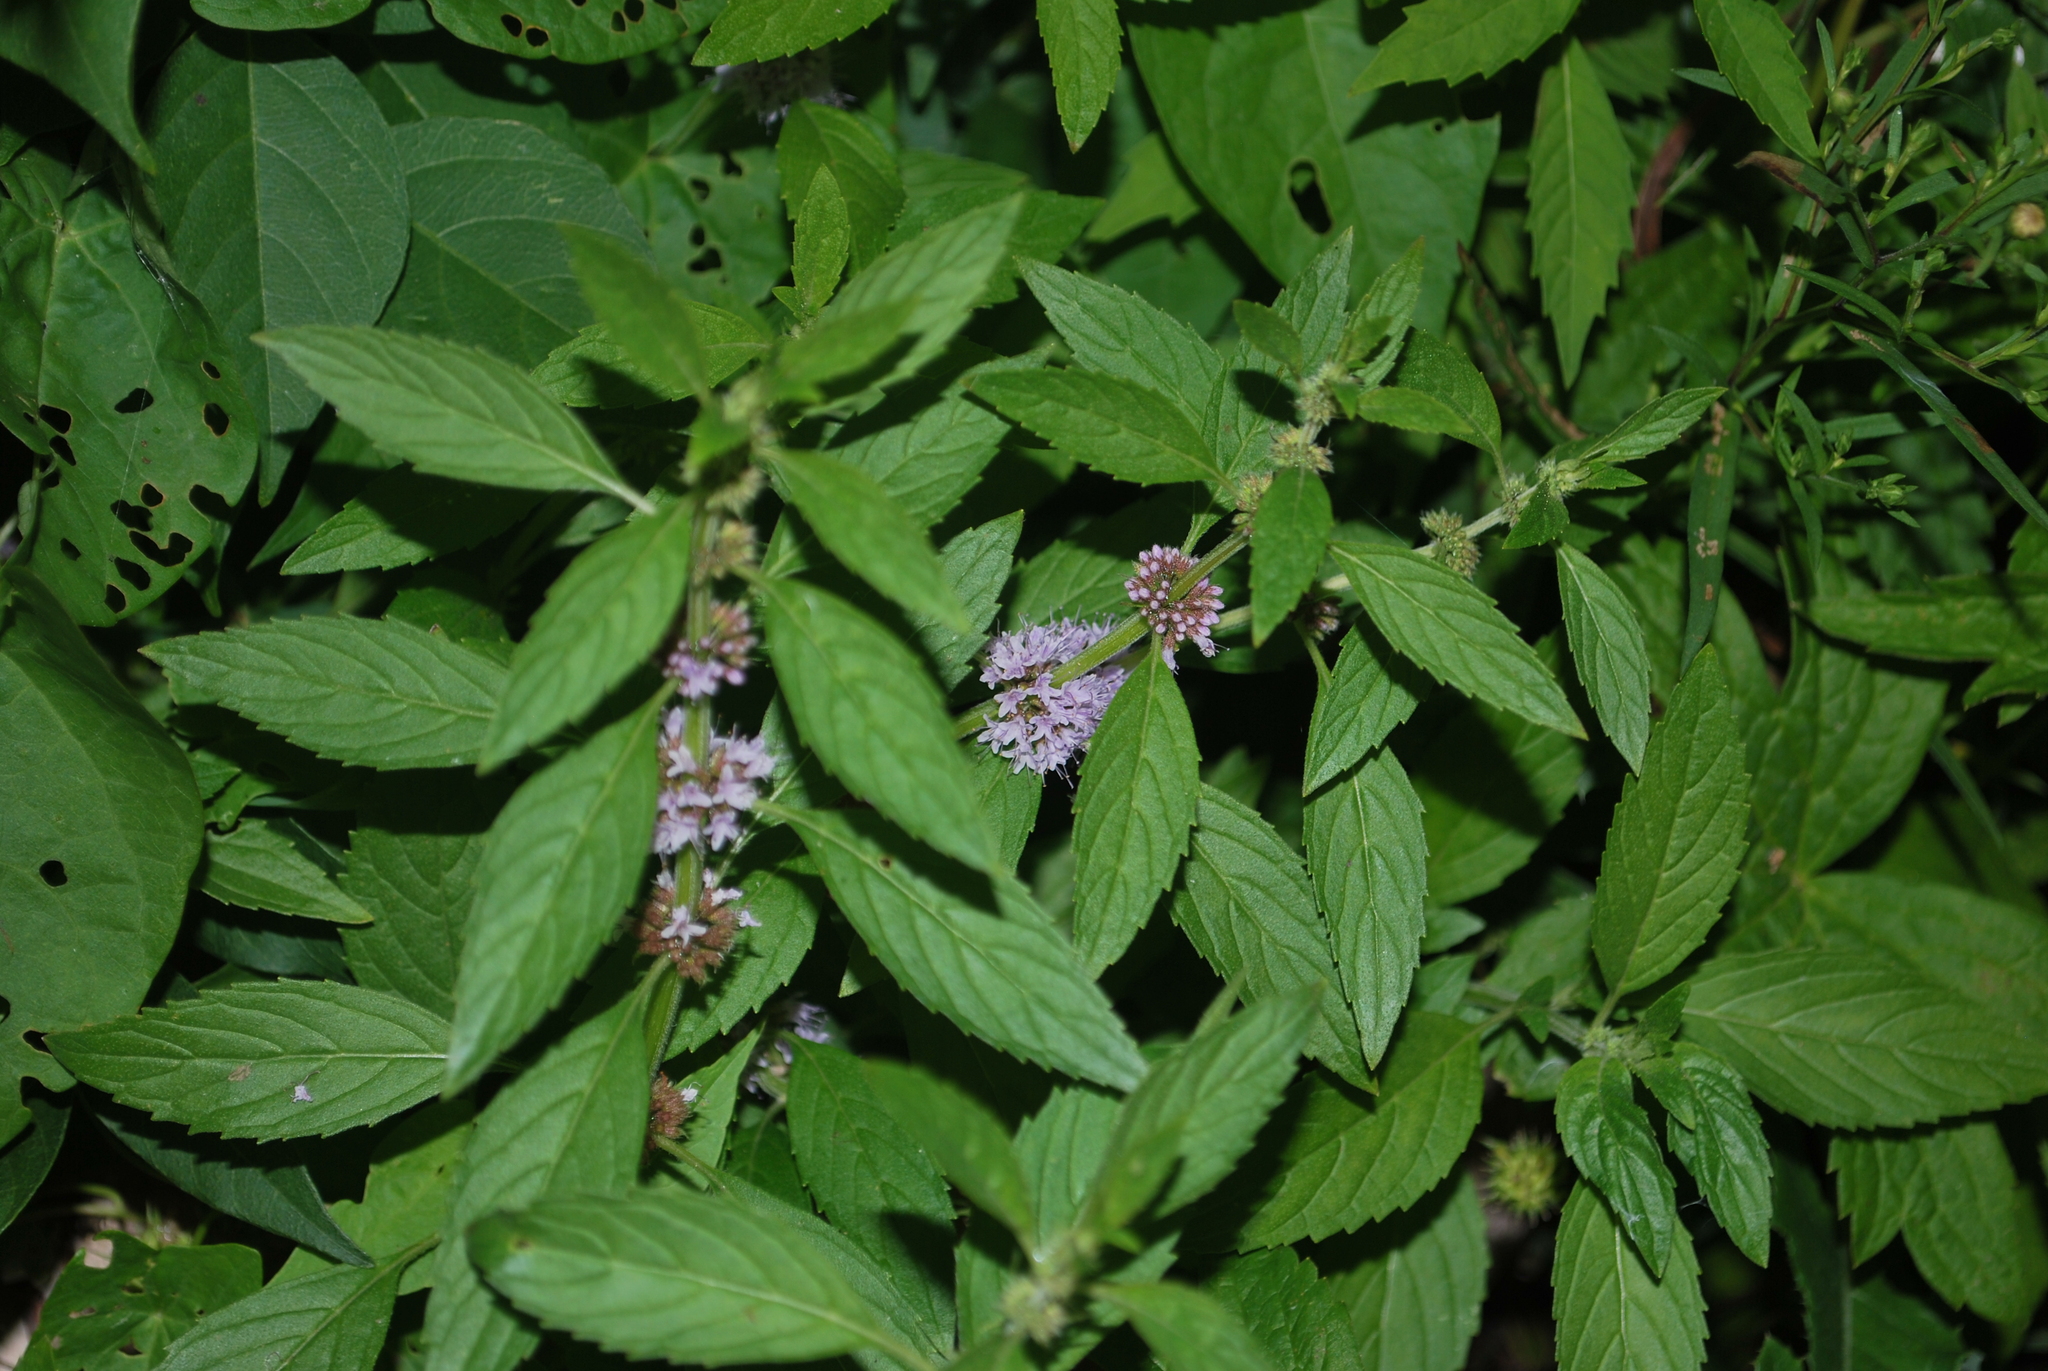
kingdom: Plantae
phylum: Tracheophyta
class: Magnoliopsida
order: Lamiales
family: Lamiaceae
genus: Mentha
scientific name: Mentha canadensis
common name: American corn mint
